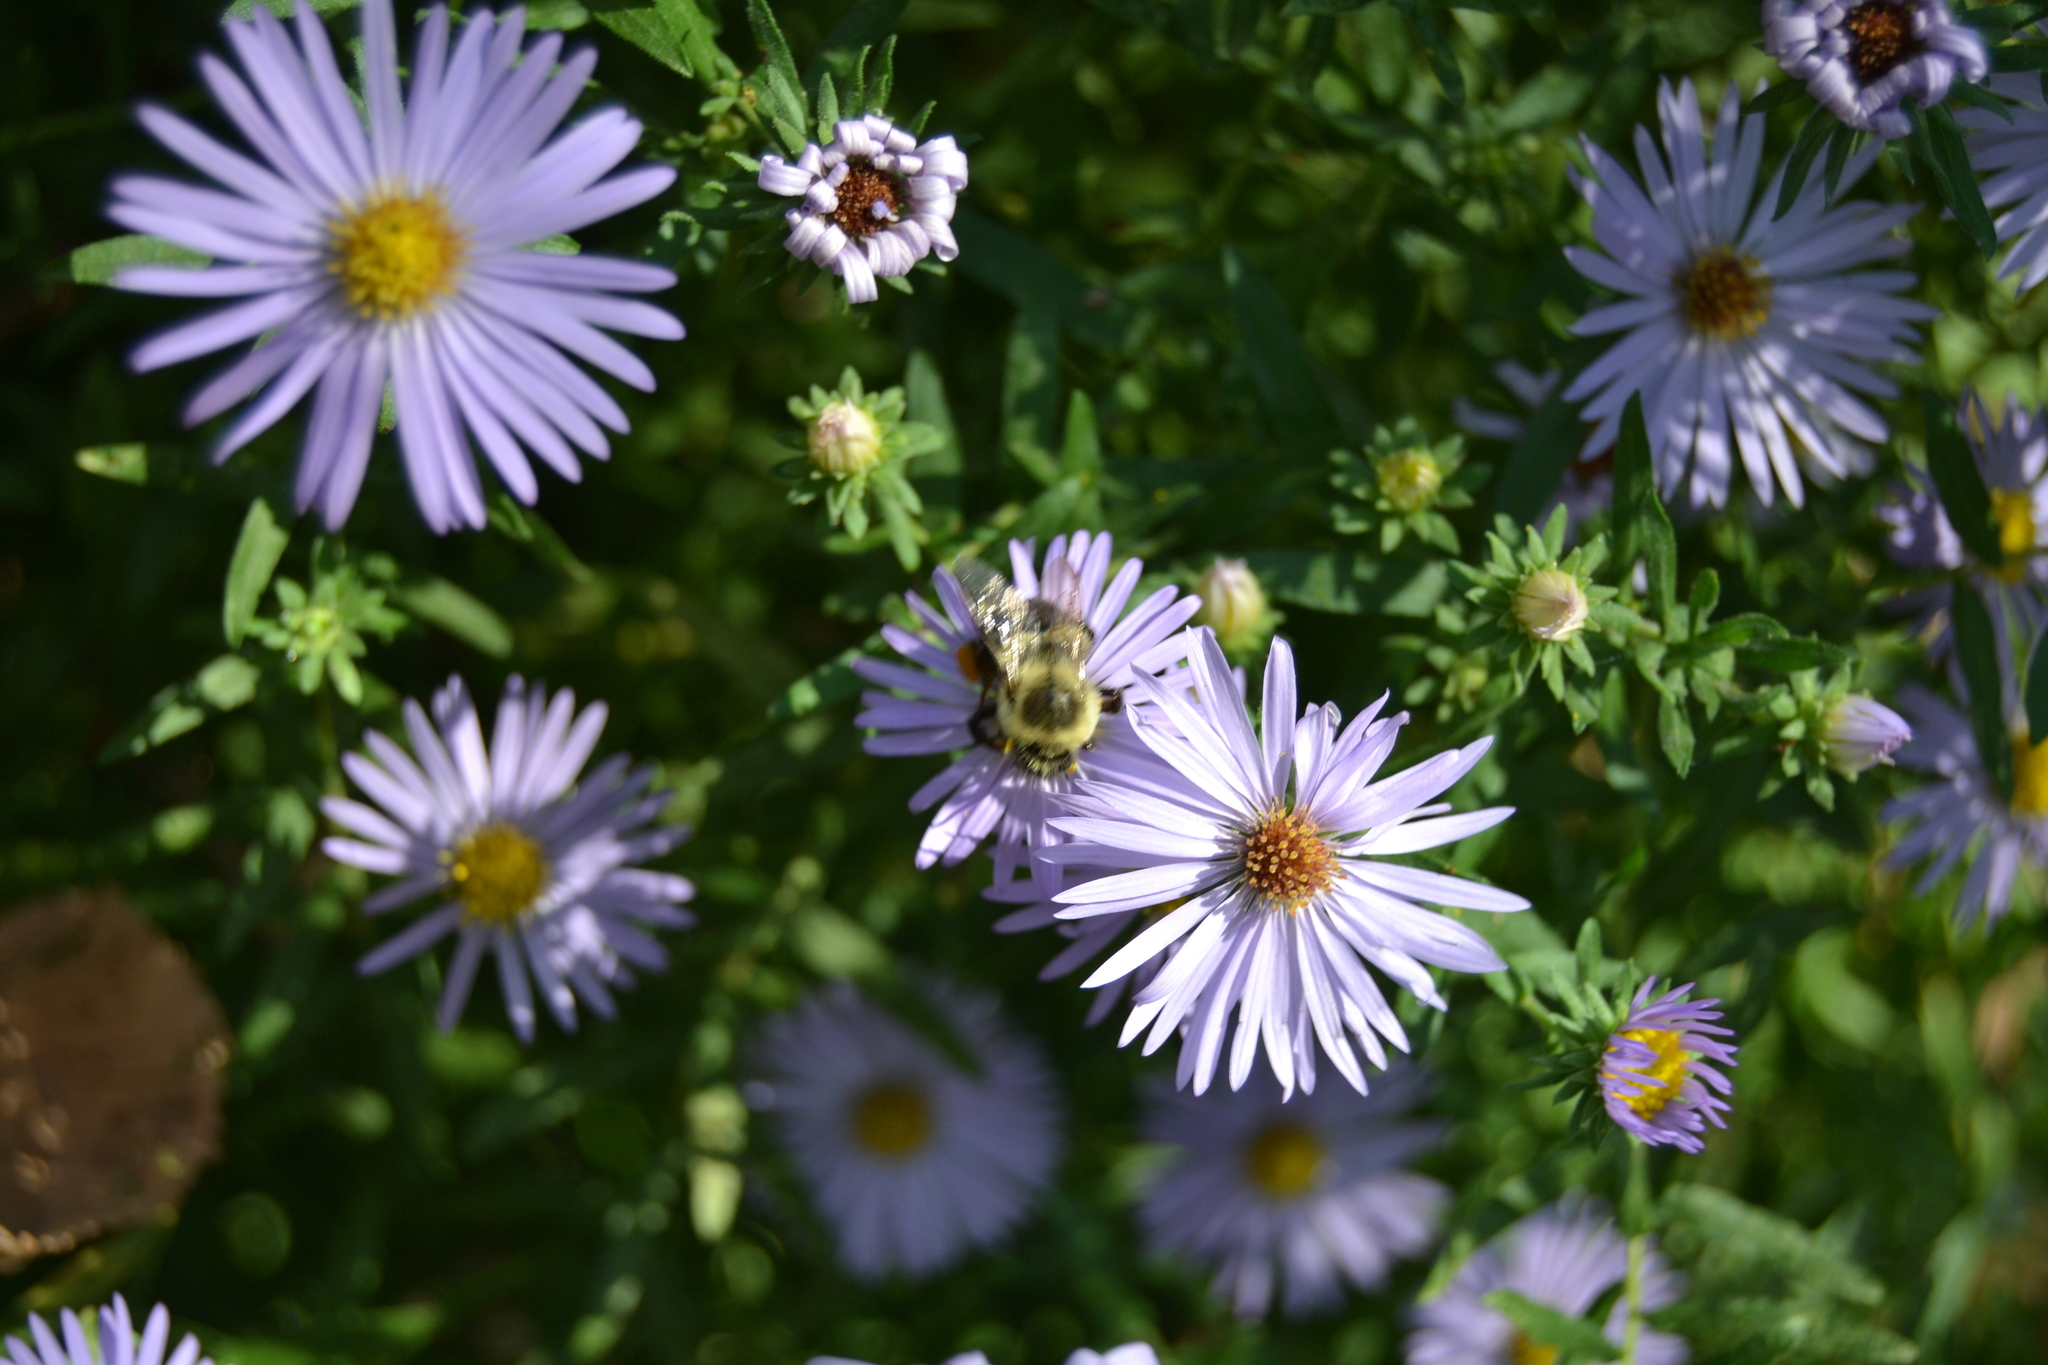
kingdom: Animalia
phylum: Arthropoda
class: Insecta
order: Hymenoptera
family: Apidae
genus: Bombus
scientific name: Bombus impatiens
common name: Common eastern bumble bee
